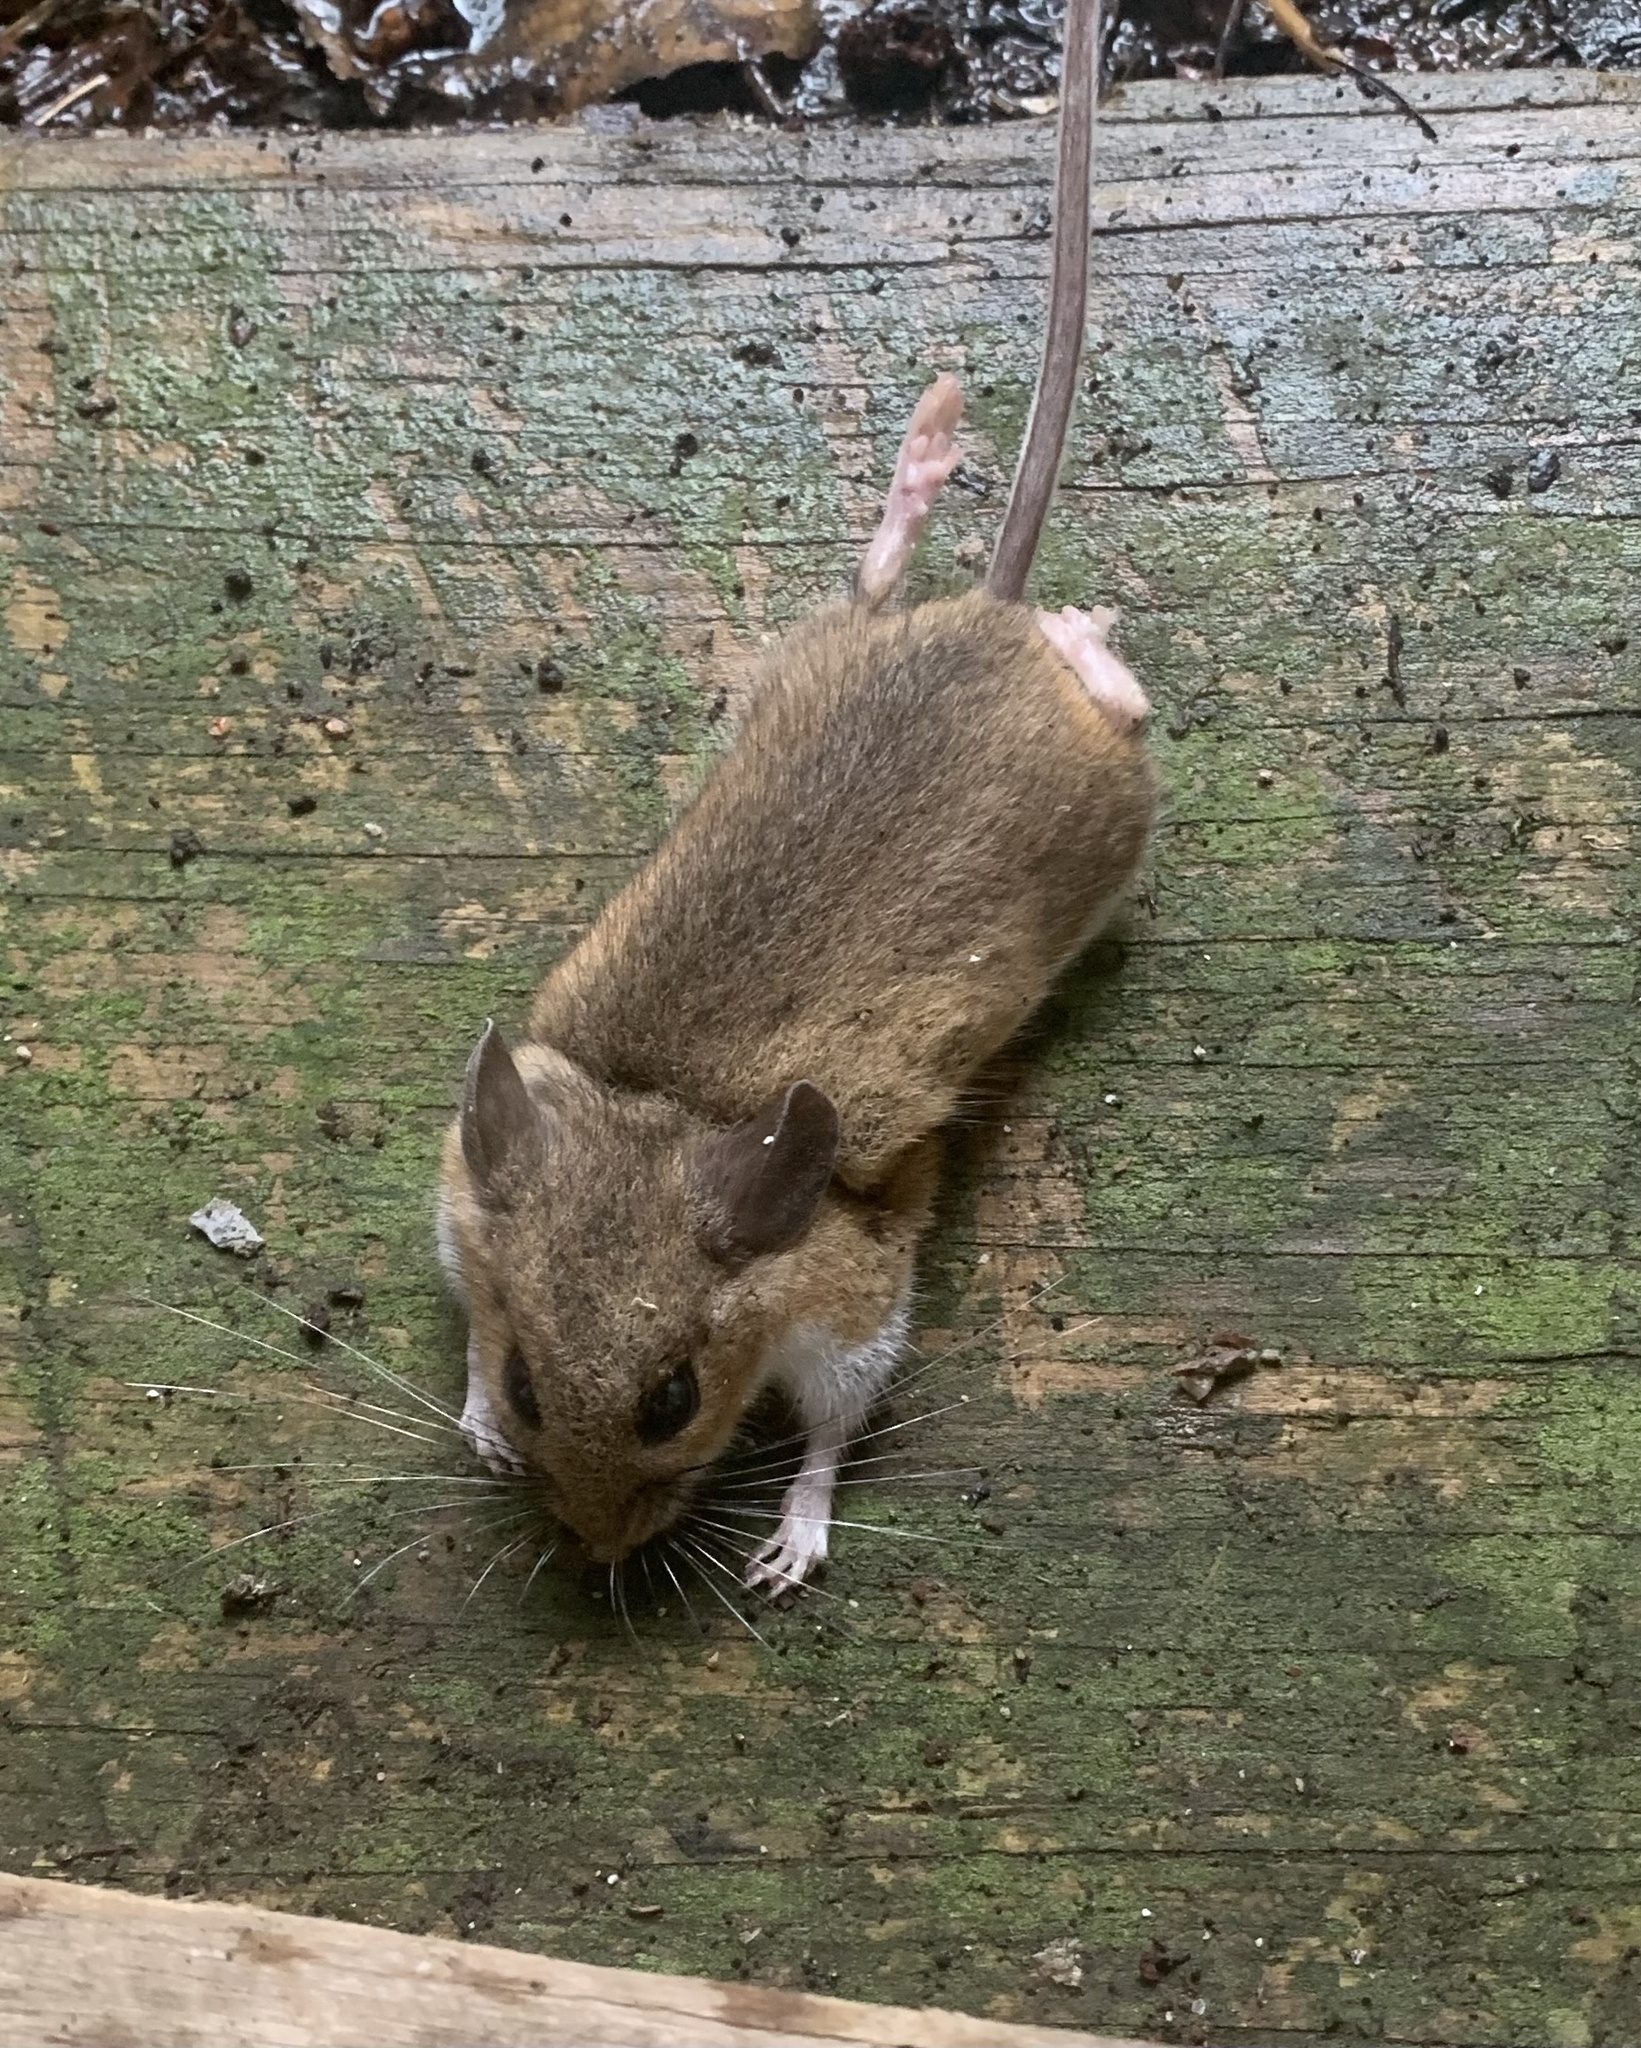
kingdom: Animalia
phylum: Chordata
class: Mammalia
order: Rodentia
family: Cricetidae
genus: Peromyscus
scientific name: Peromyscus leucopus
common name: White-footed deermouse
